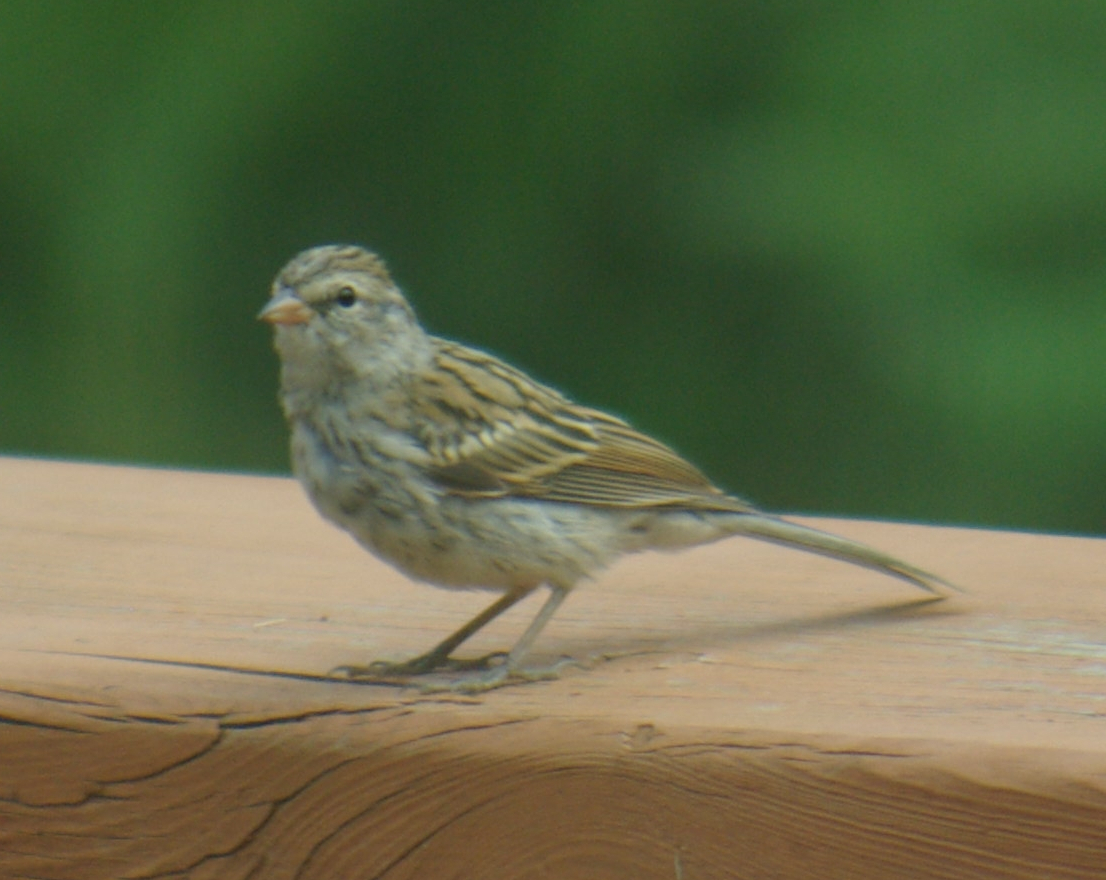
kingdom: Animalia
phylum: Chordata
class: Aves
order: Passeriformes
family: Passerellidae
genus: Spizella
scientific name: Spizella passerina
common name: Chipping sparrow
